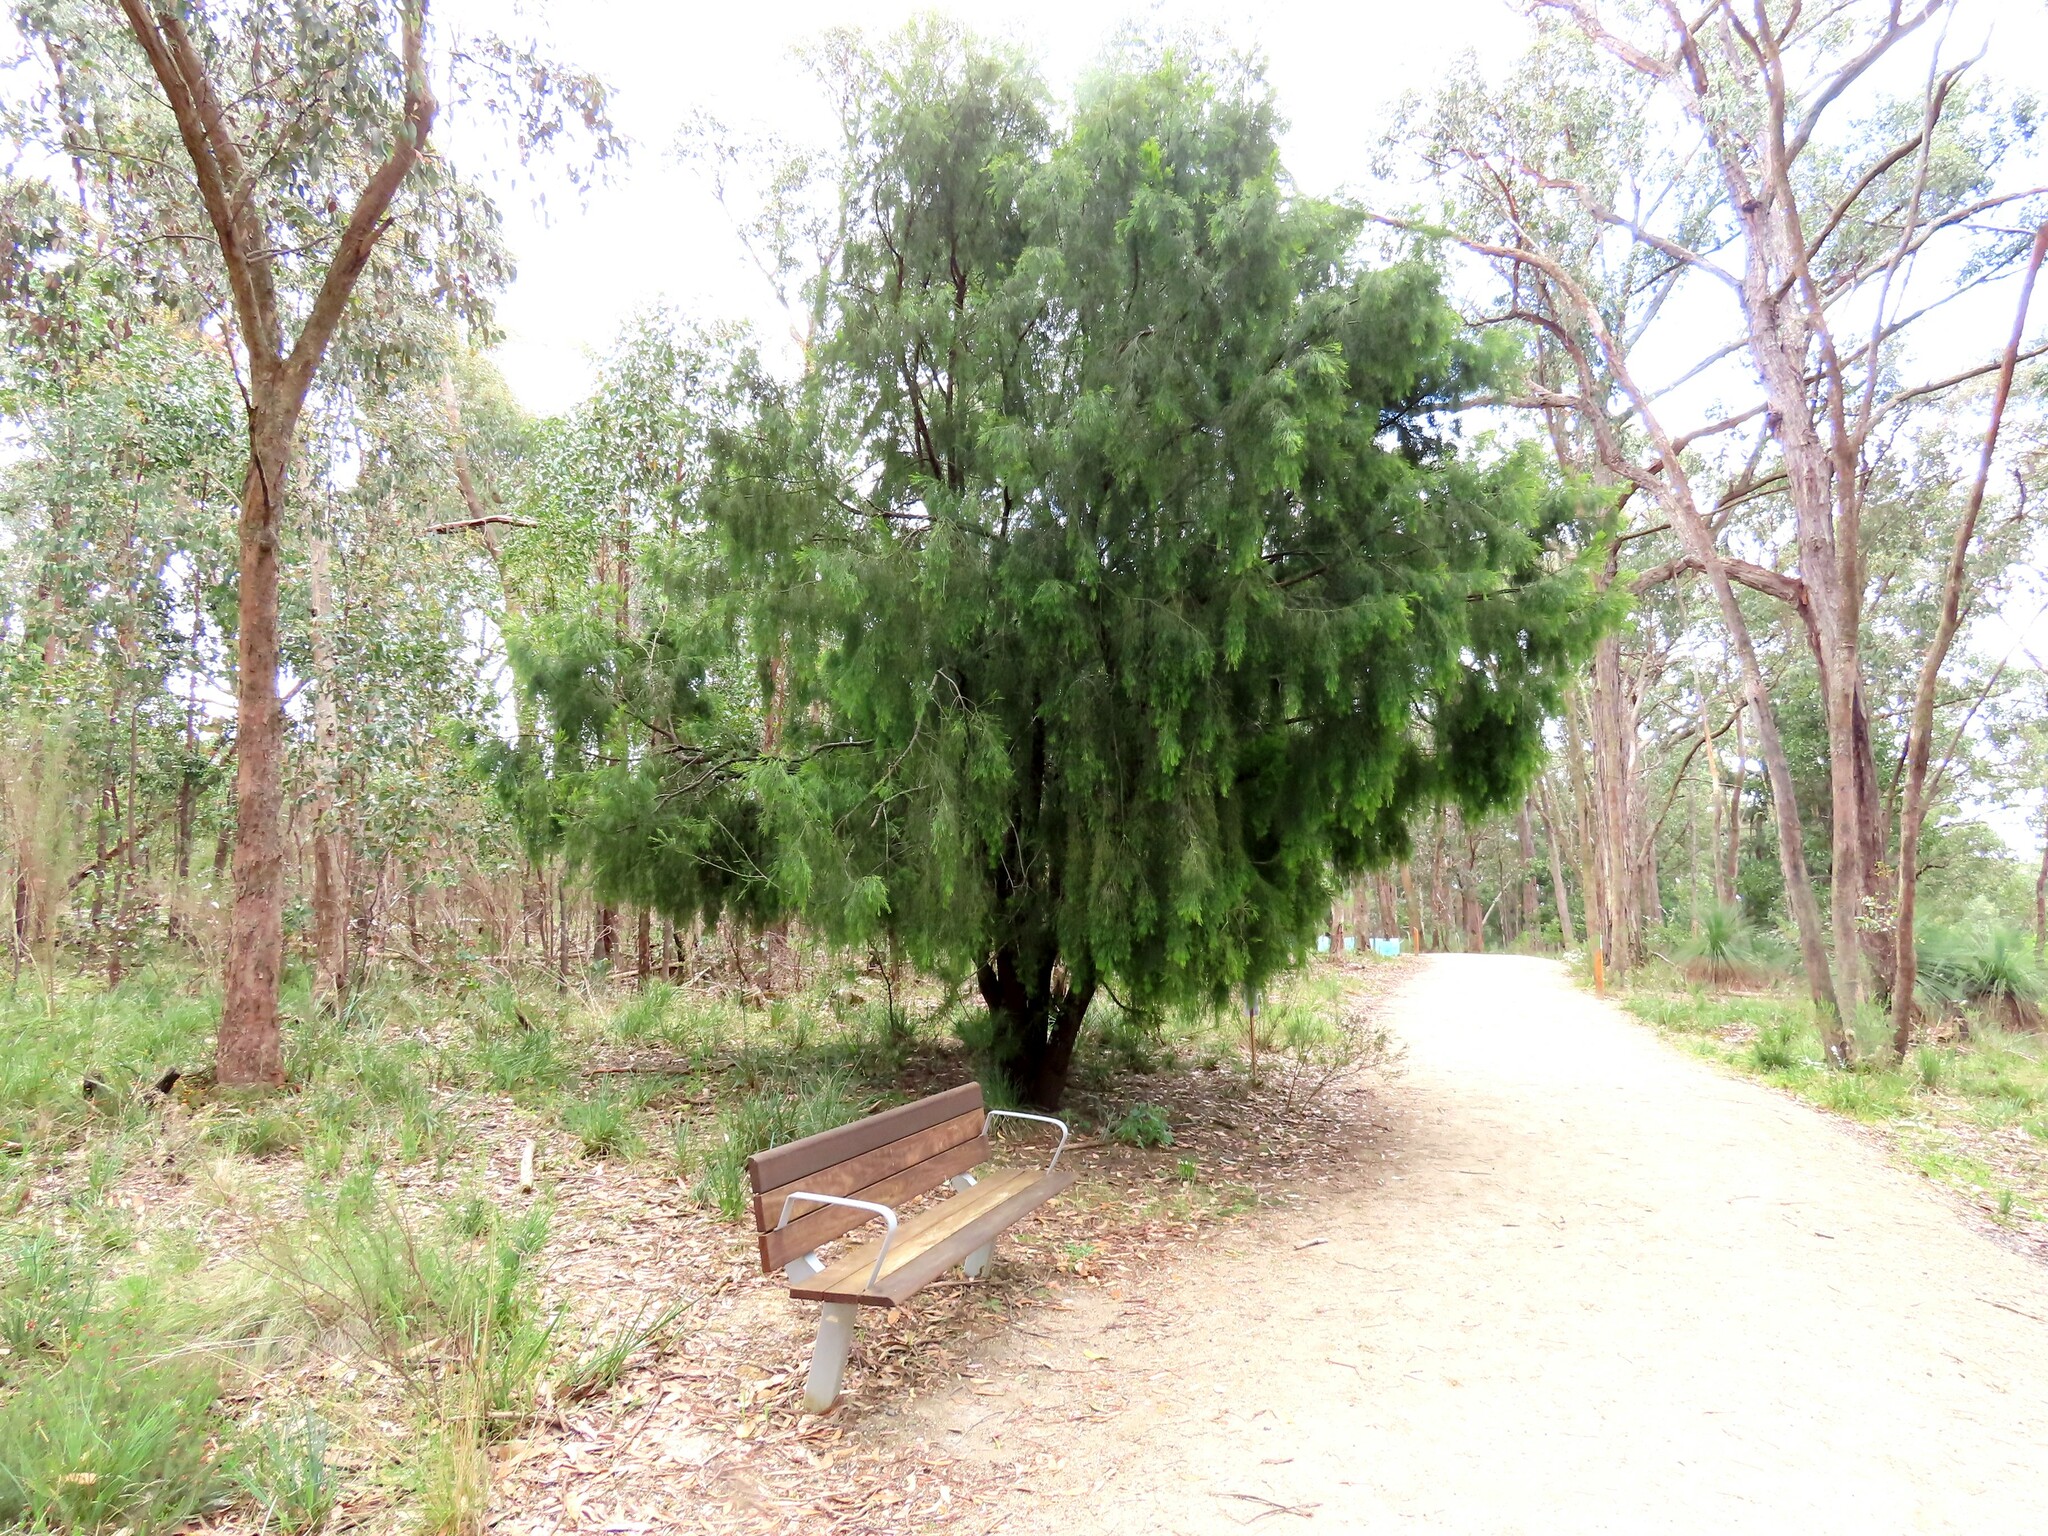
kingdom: Plantae
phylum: Tracheophyta
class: Magnoliopsida
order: Santalales
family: Santalaceae
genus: Exocarpos
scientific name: Exocarpos cupressiformis
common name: Cherry ballart
